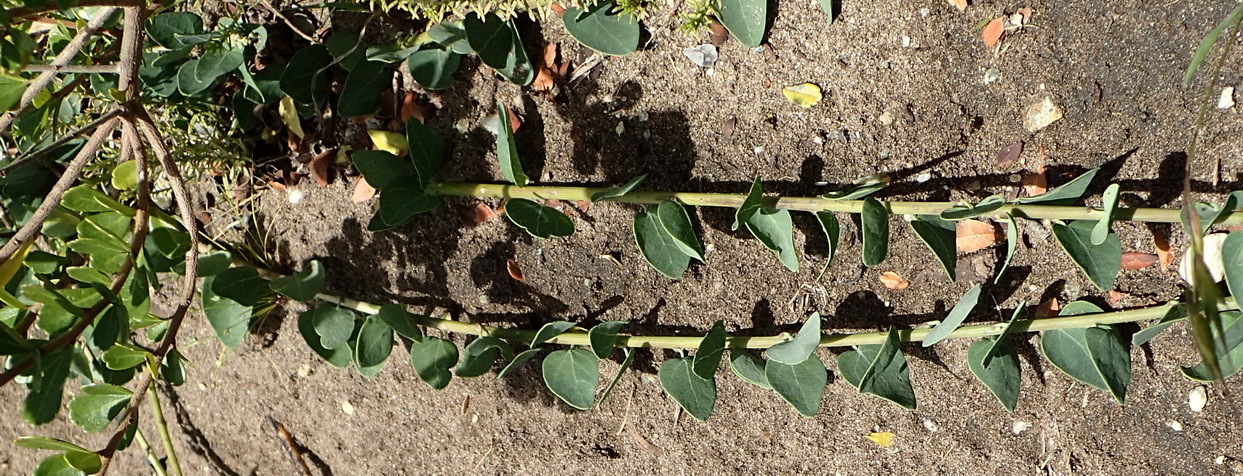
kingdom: Plantae
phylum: Tracheophyta
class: Magnoliopsida
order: Ranunculales
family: Menispermaceae
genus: Cissampelos
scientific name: Cissampelos capensis
